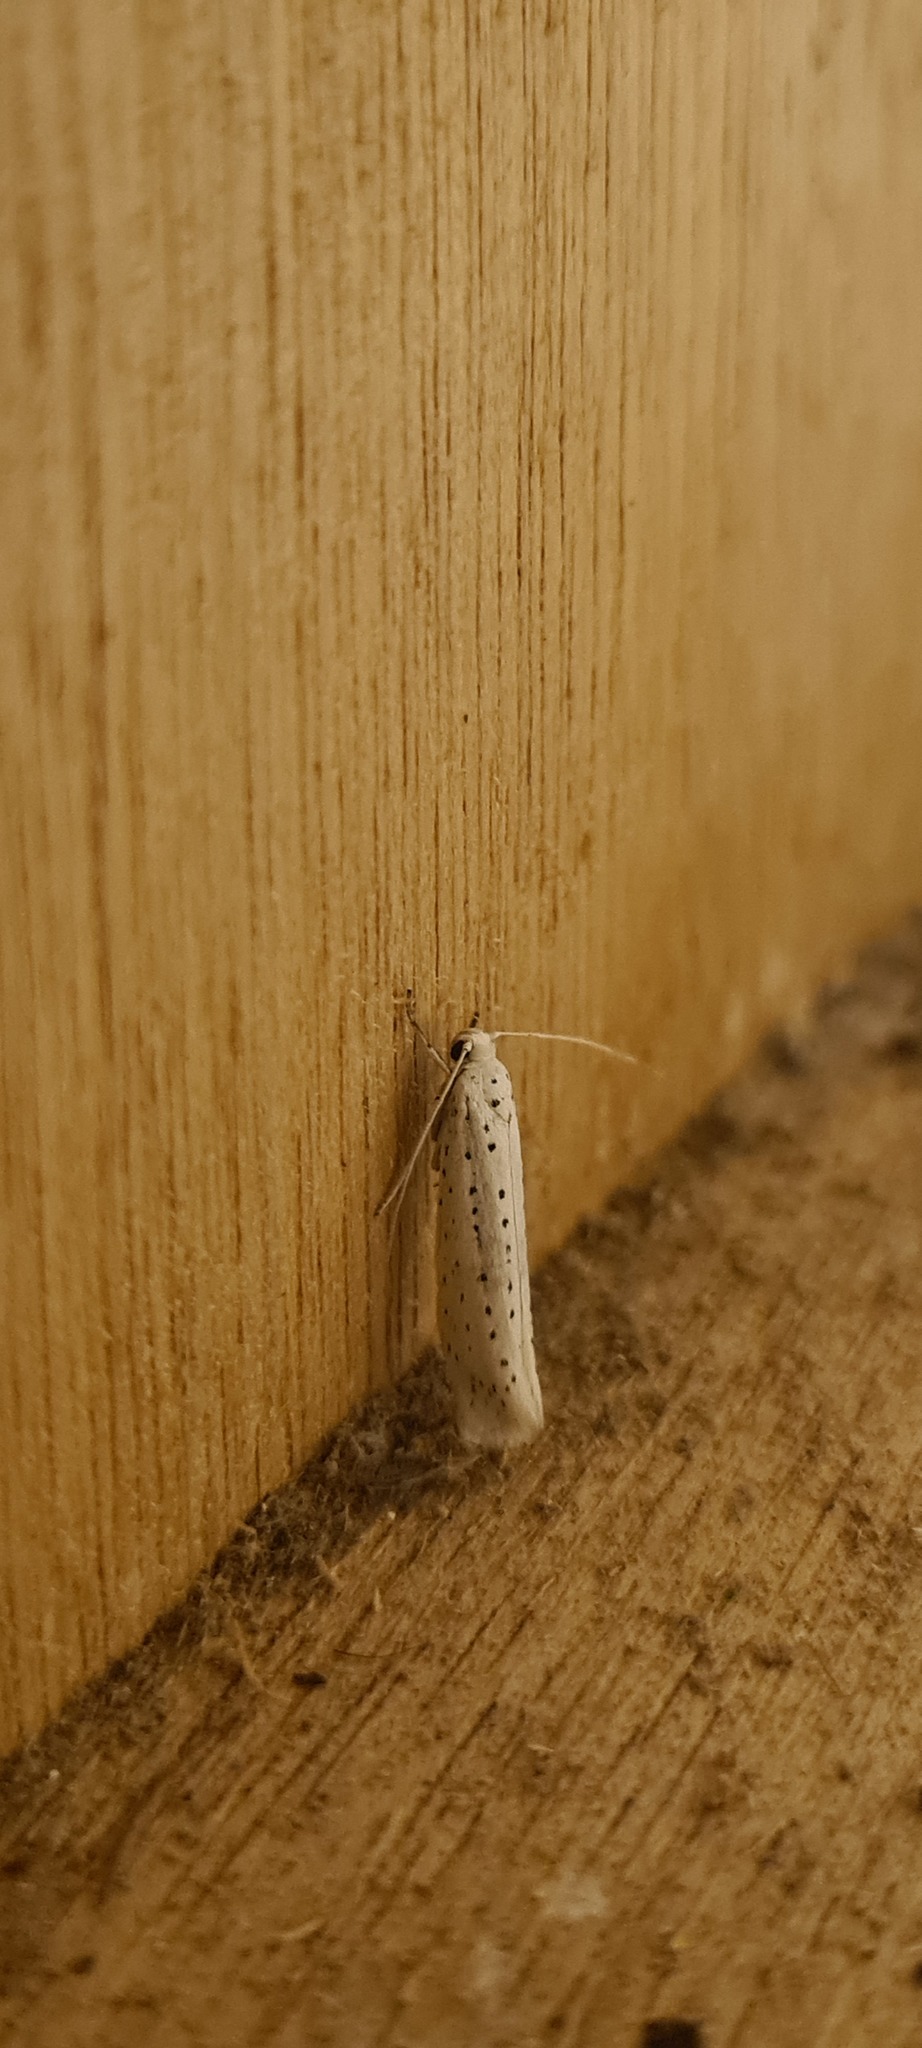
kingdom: Animalia
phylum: Arthropoda
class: Insecta
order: Lepidoptera
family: Yponomeutidae
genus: Yponomeuta
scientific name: Yponomeuta evonymella
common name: Bird-cherry ermine
